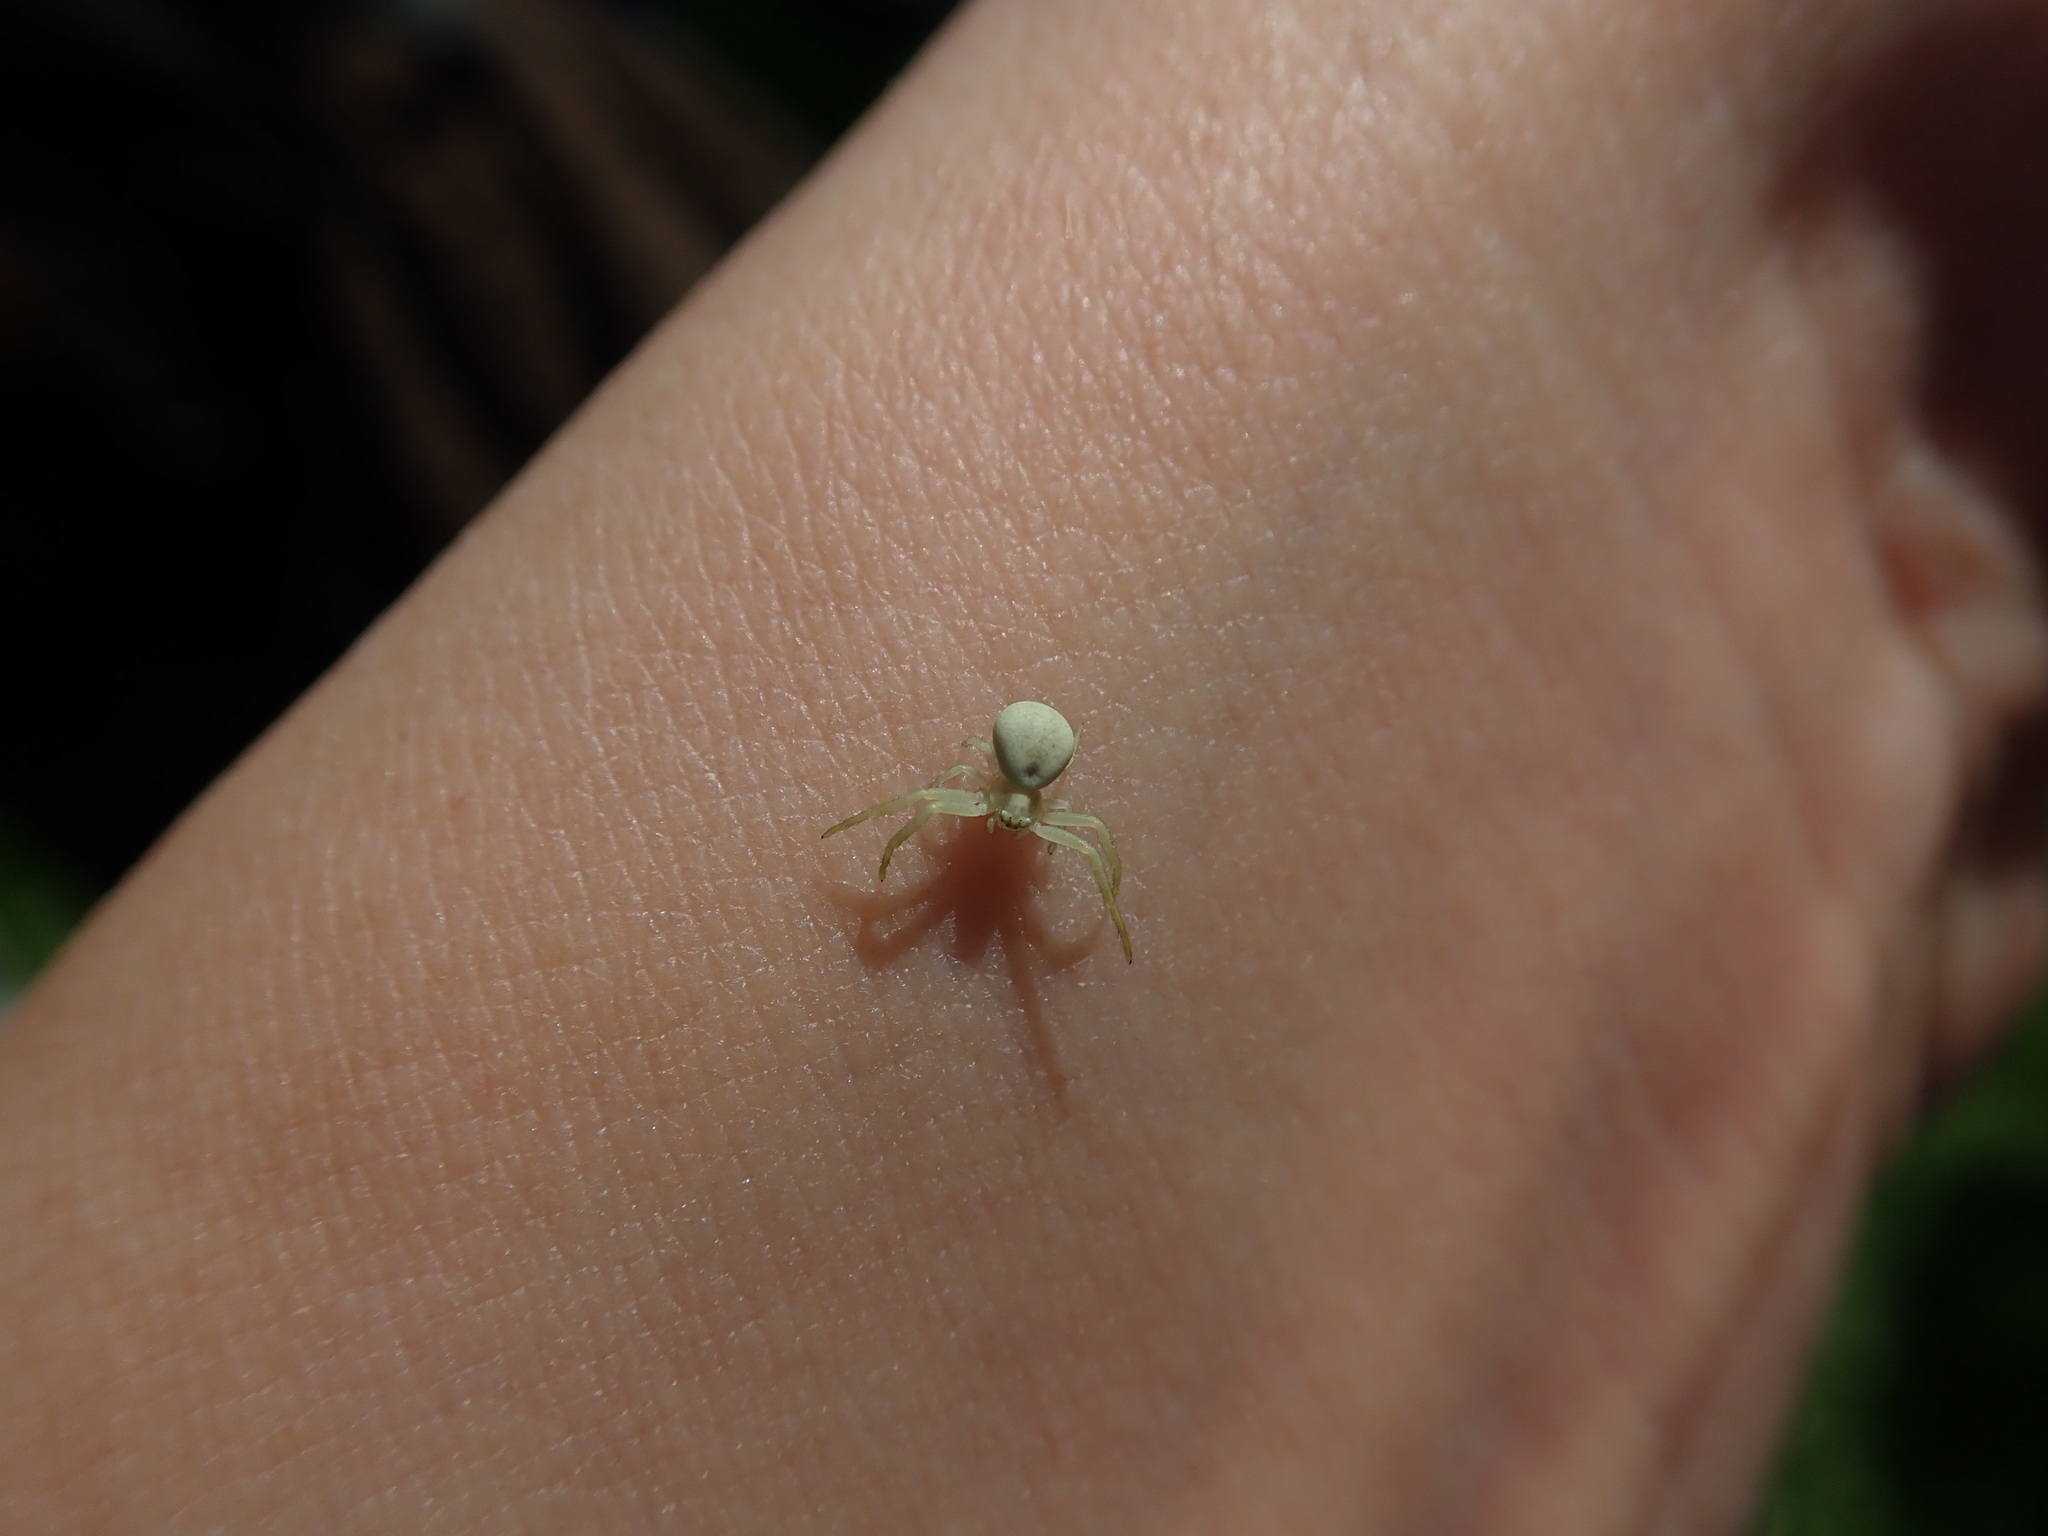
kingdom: Animalia
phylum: Arthropoda
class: Arachnida
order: Araneae
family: Thomisidae
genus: Misumena
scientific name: Misumena vatia
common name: Goldenrod crab spider
